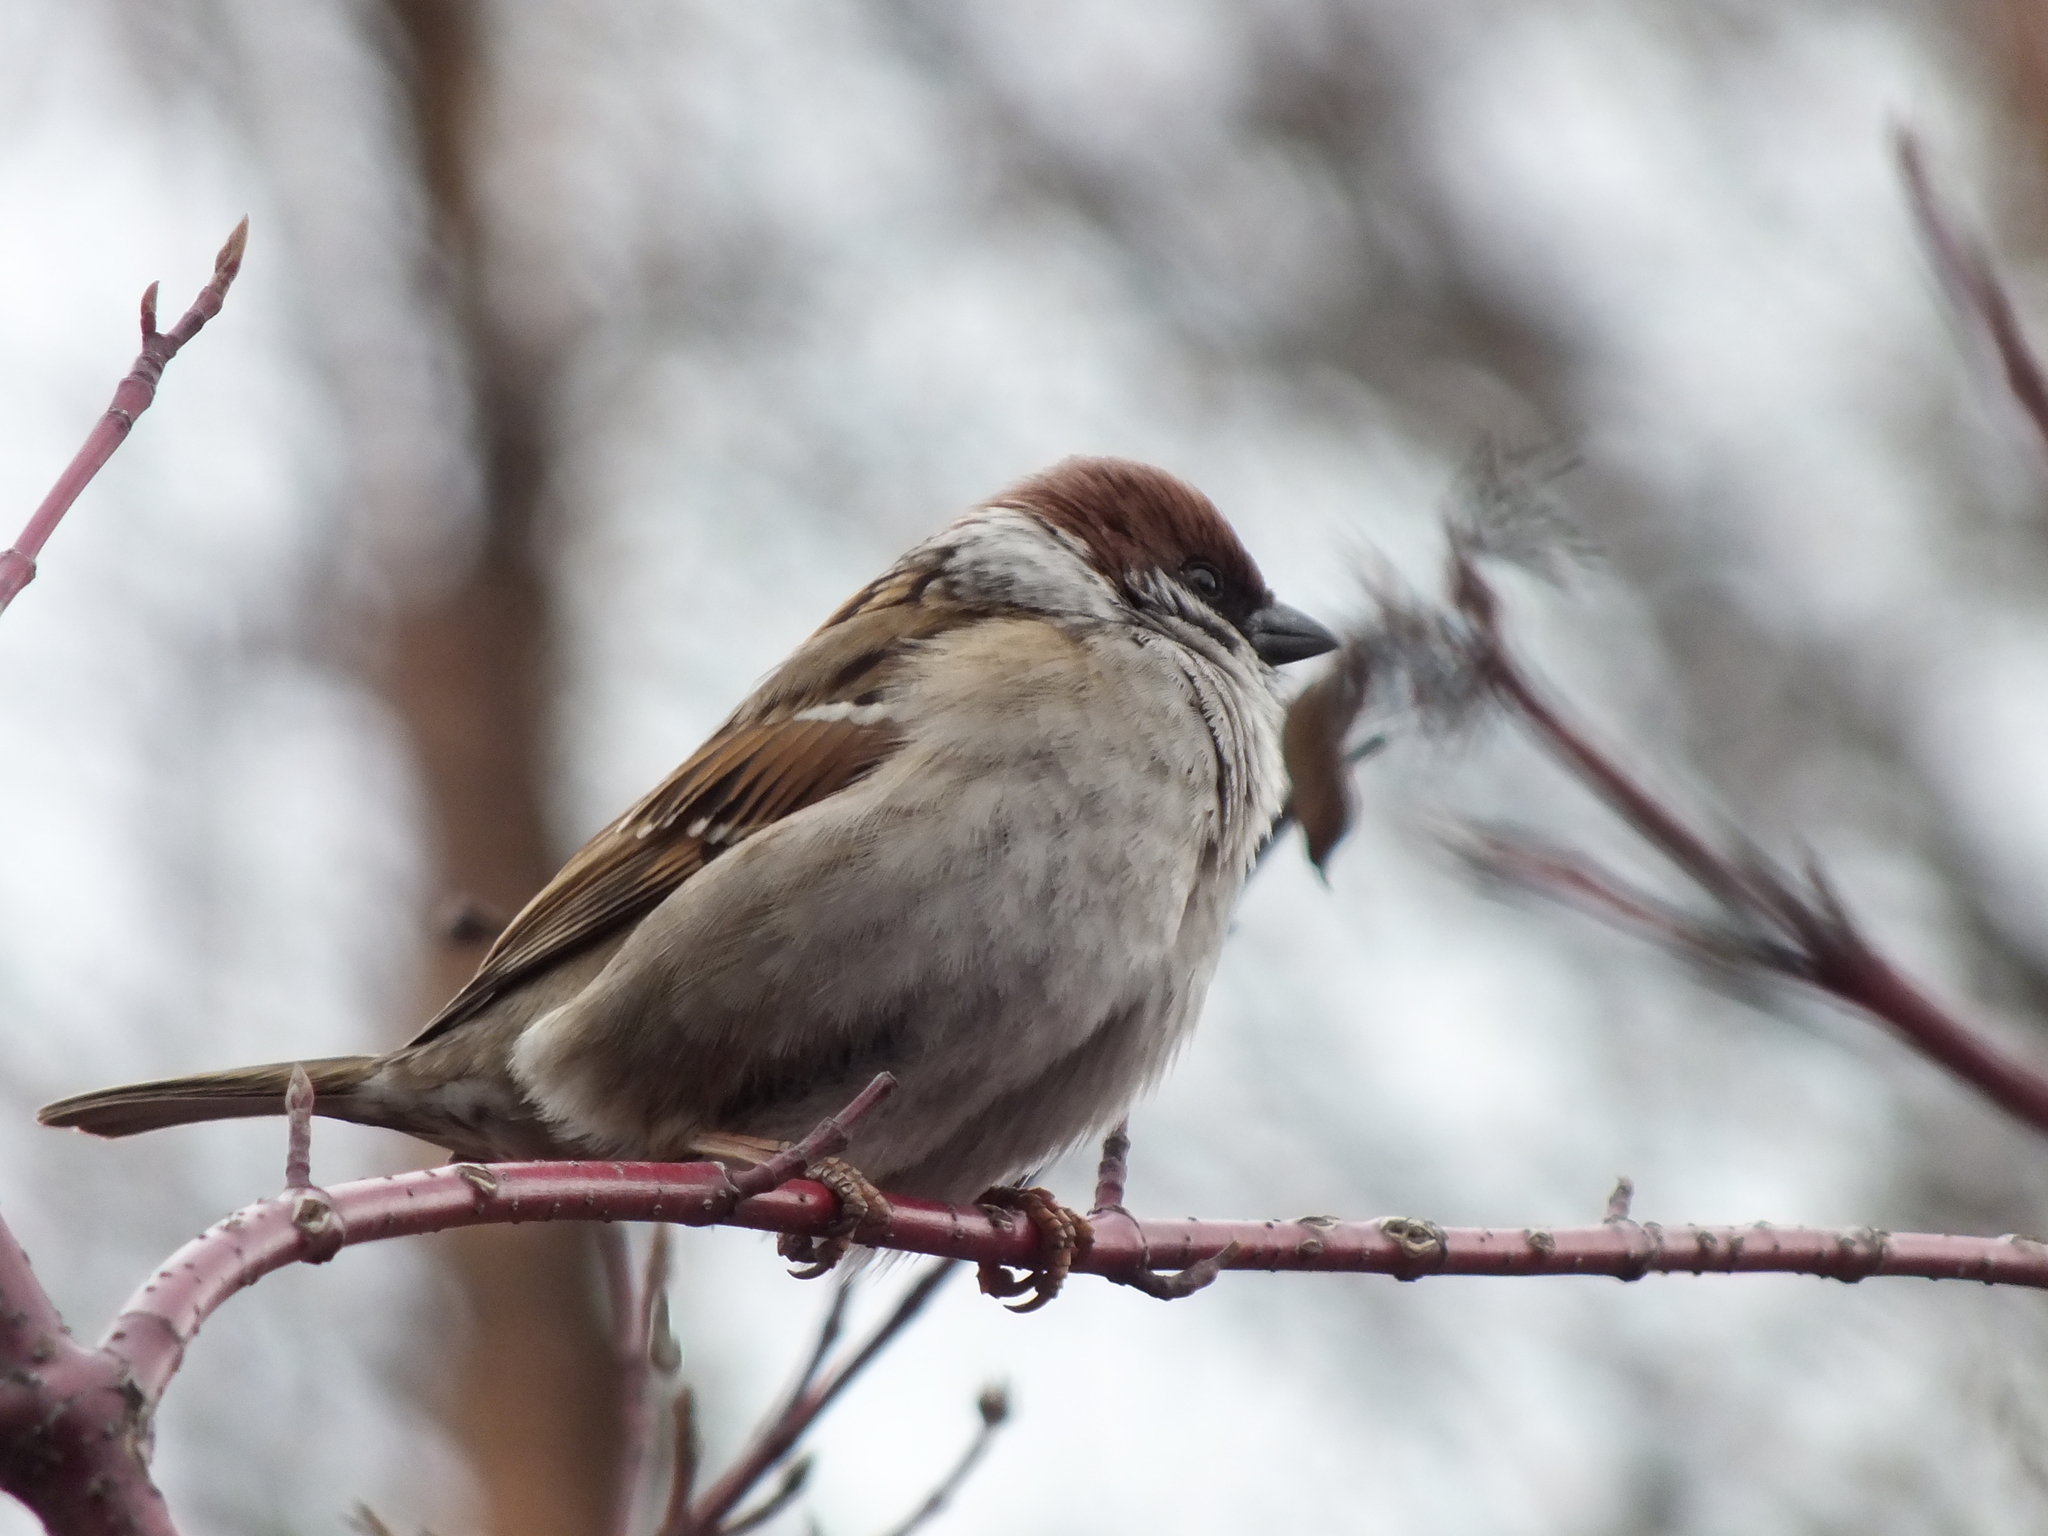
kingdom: Animalia
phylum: Chordata
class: Aves
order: Passeriformes
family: Passeridae
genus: Passer
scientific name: Passer montanus
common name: Eurasian tree sparrow
